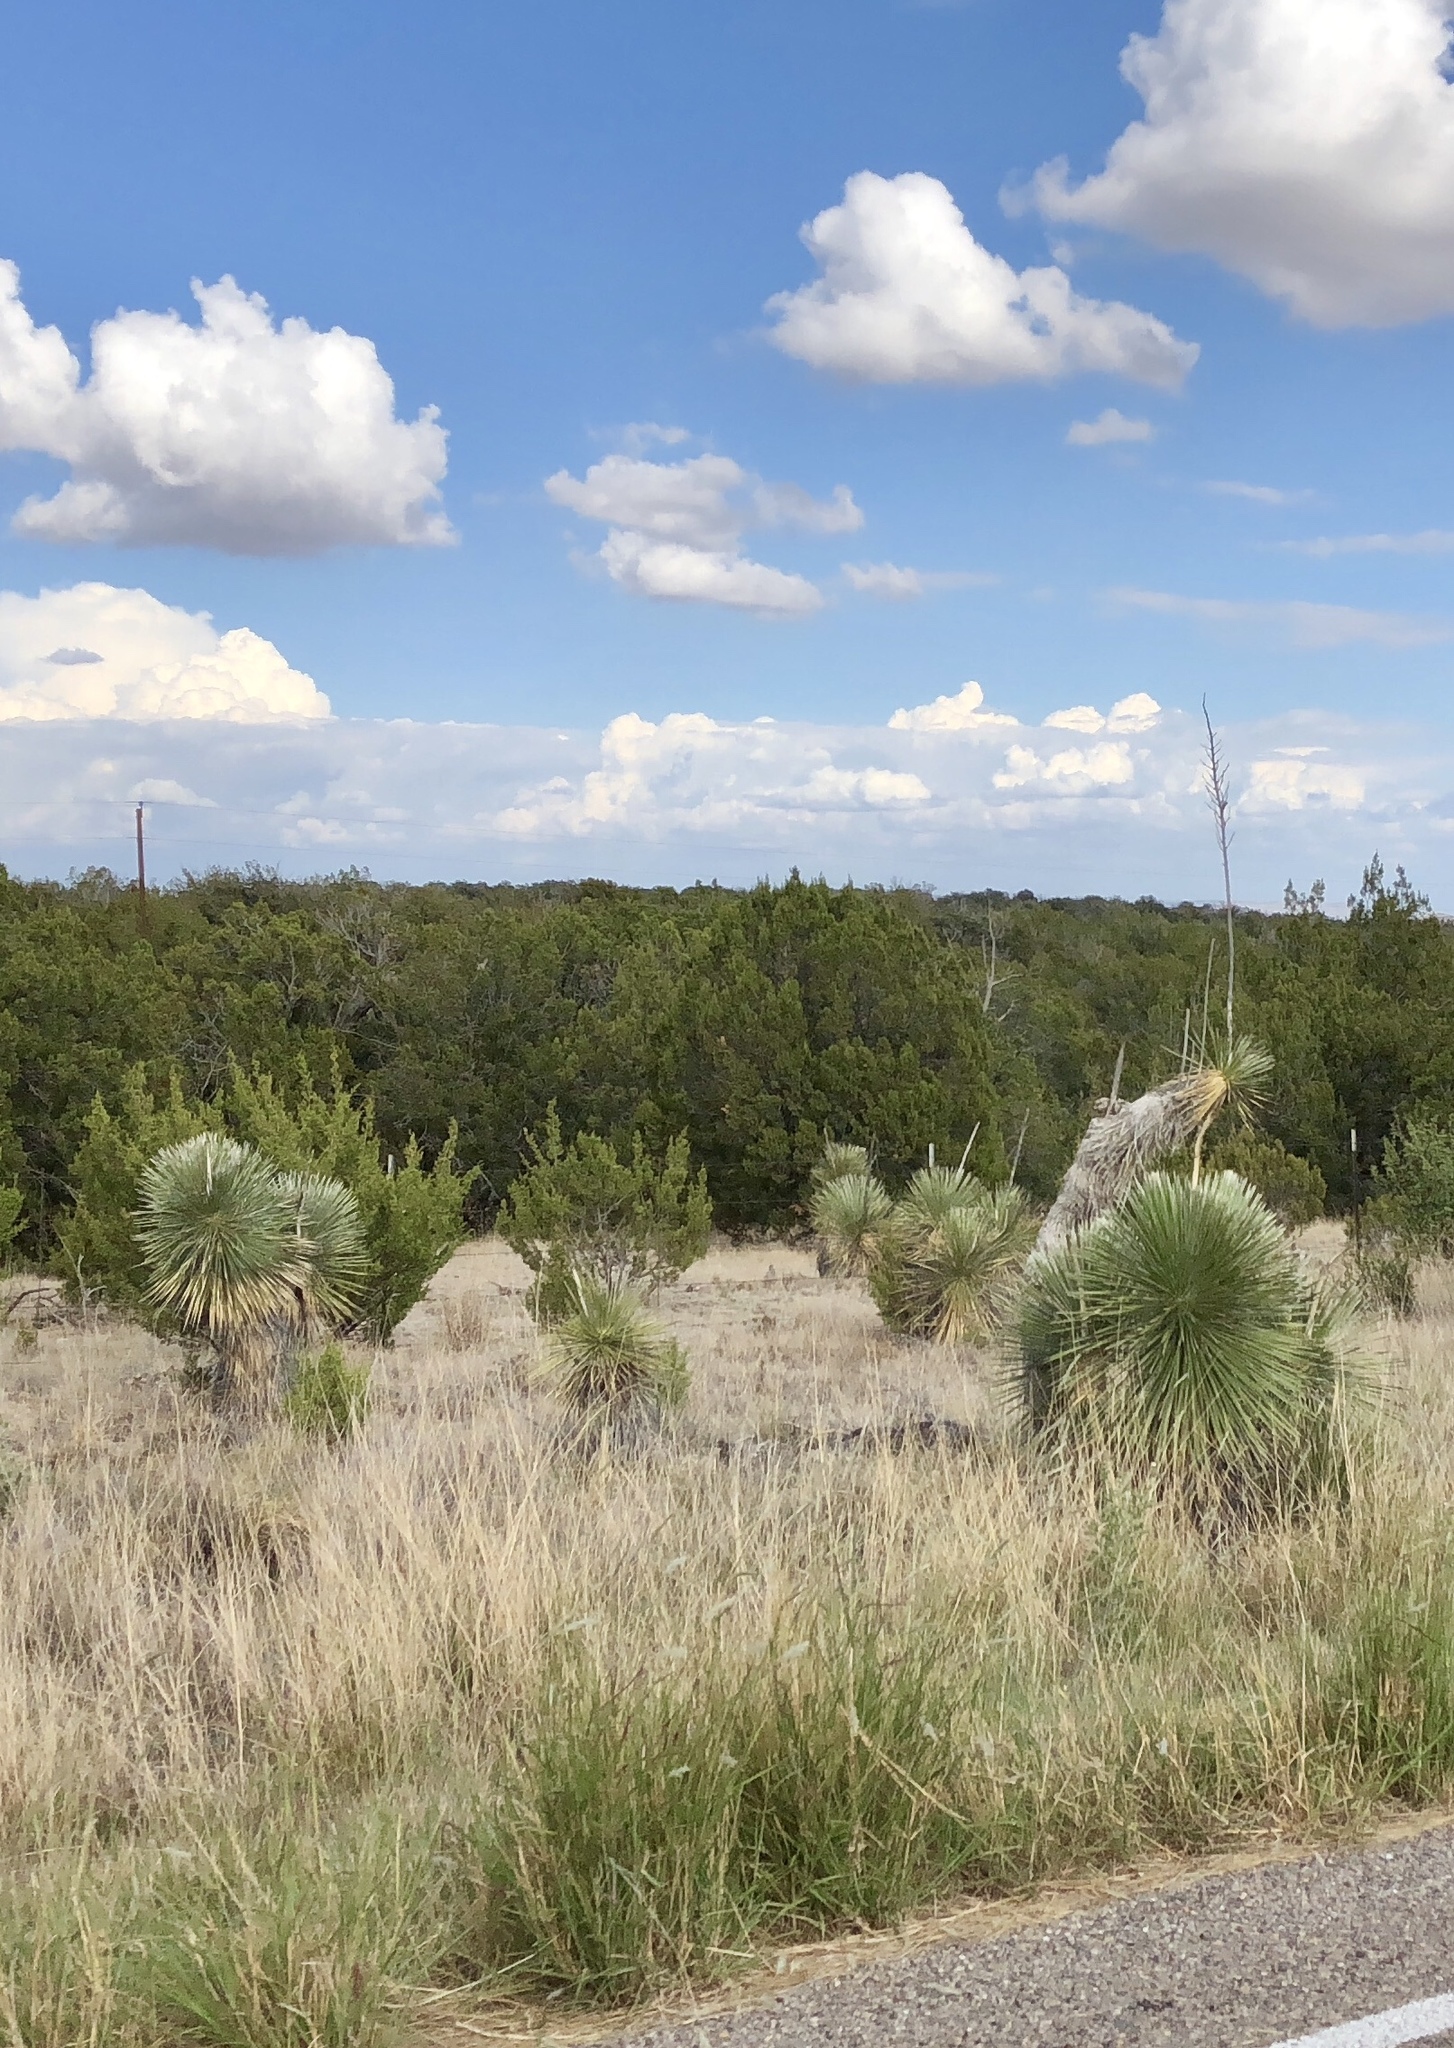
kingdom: Plantae
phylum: Tracheophyta
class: Liliopsida
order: Asparagales
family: Asparagaceae
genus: Yucca
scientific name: Yucca elata
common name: Palmella
